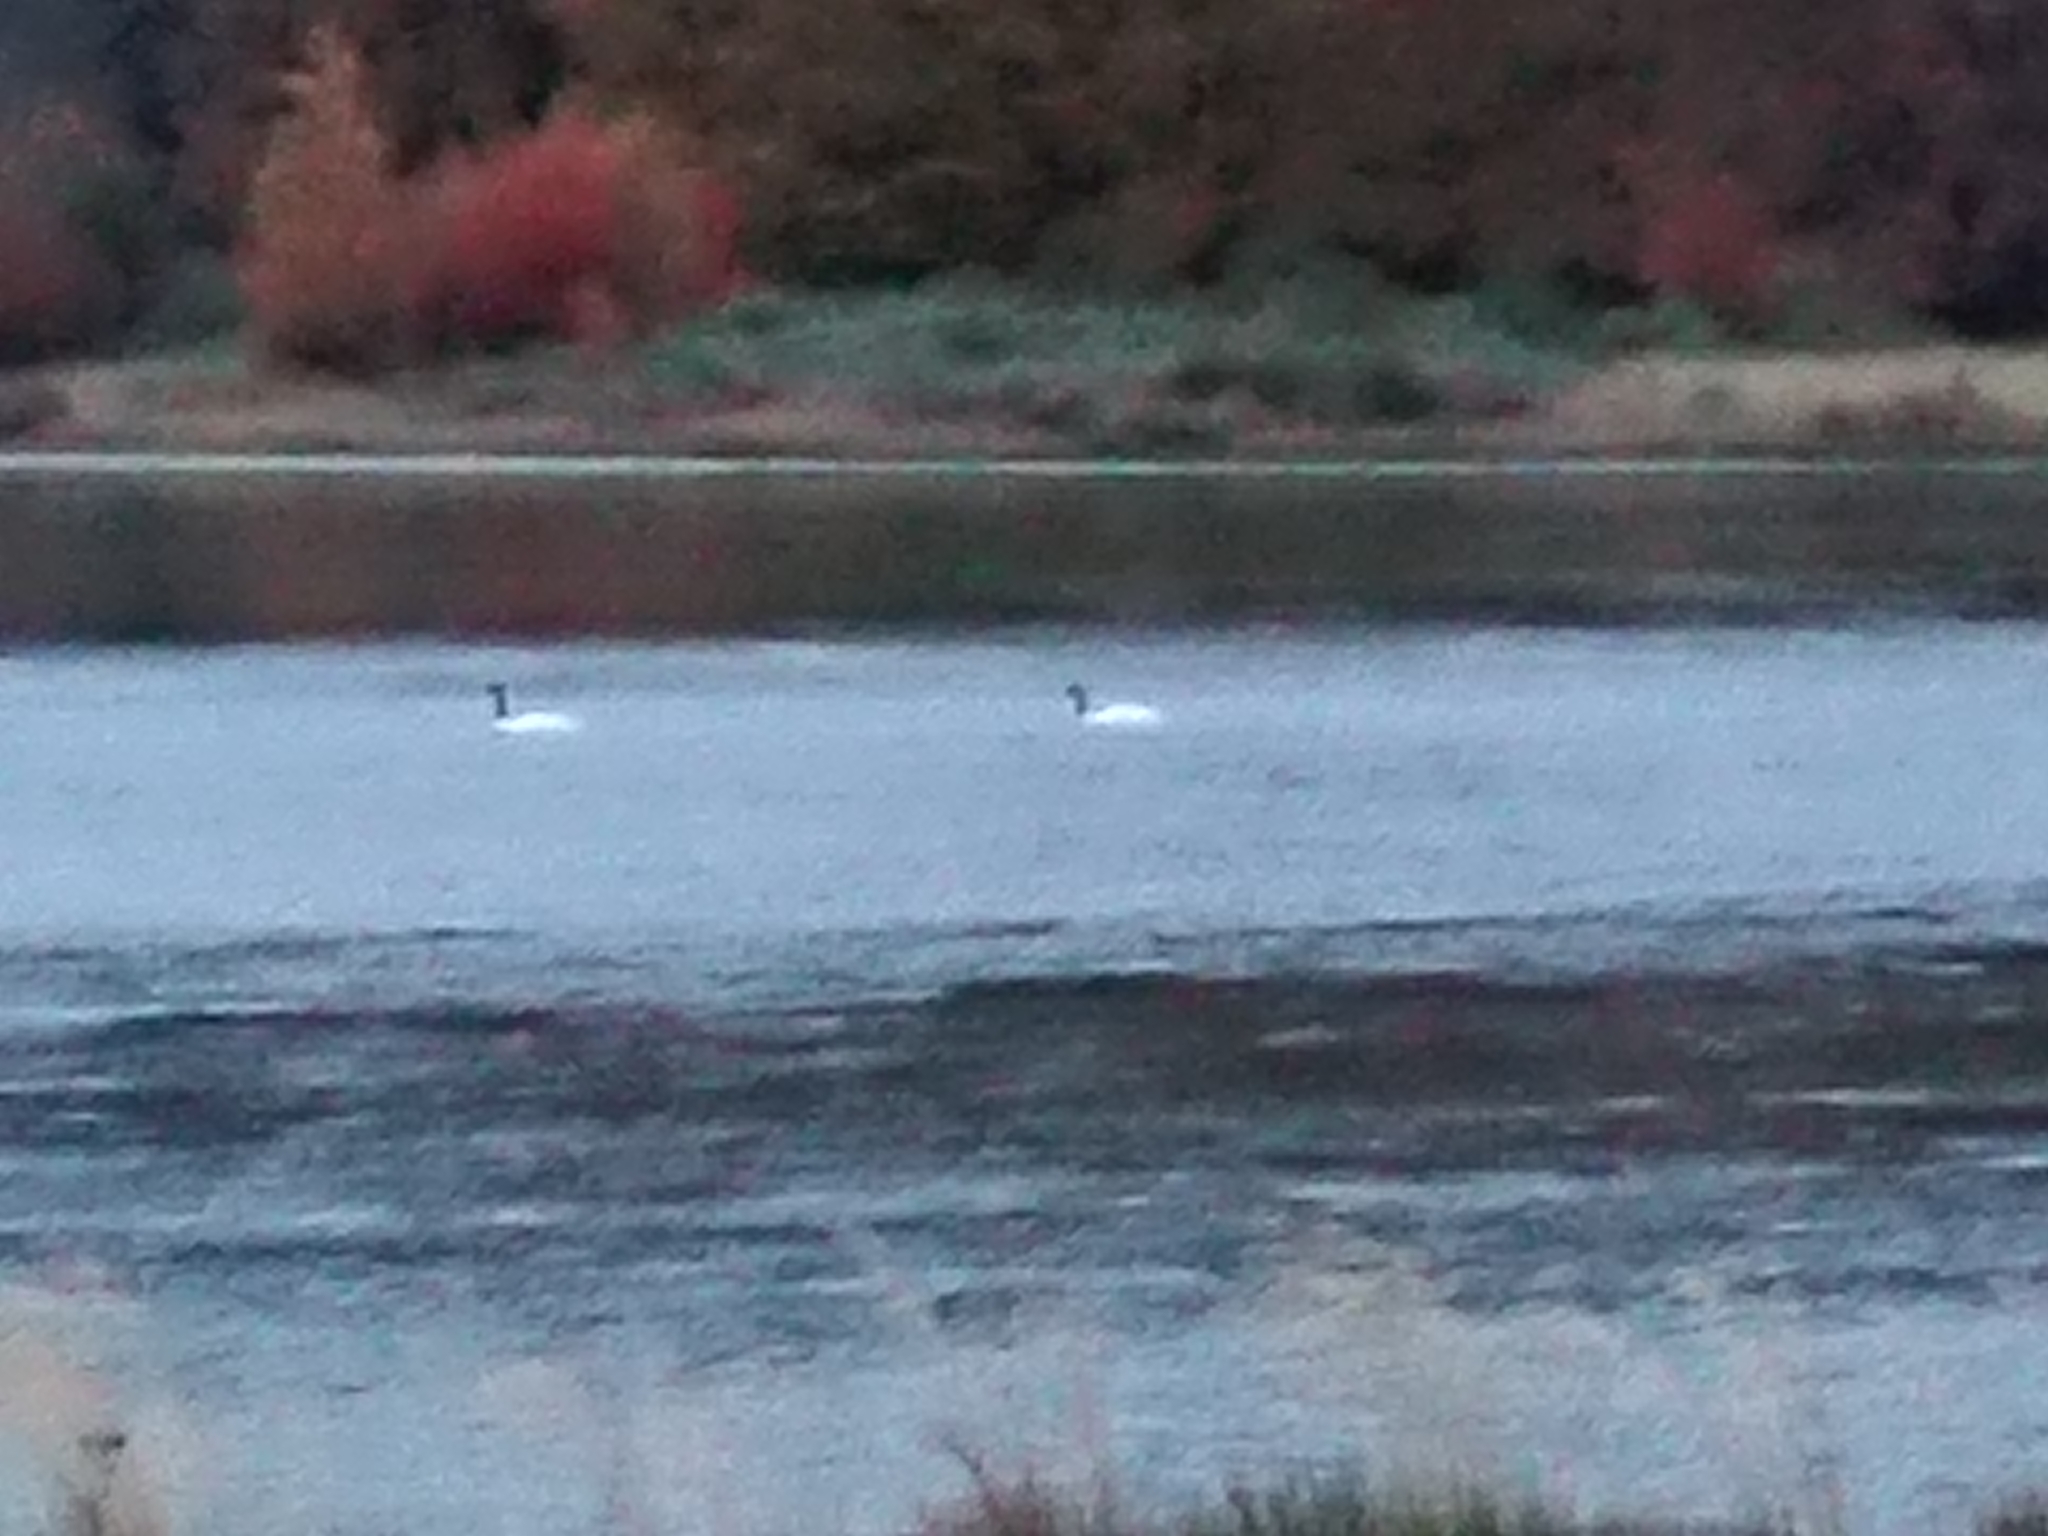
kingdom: Animalia
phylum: Chordata
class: Aves
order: Anseriformes
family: Anatidae
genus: Cygnus
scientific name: Cygnus melancoryphus
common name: Black-necked swan
